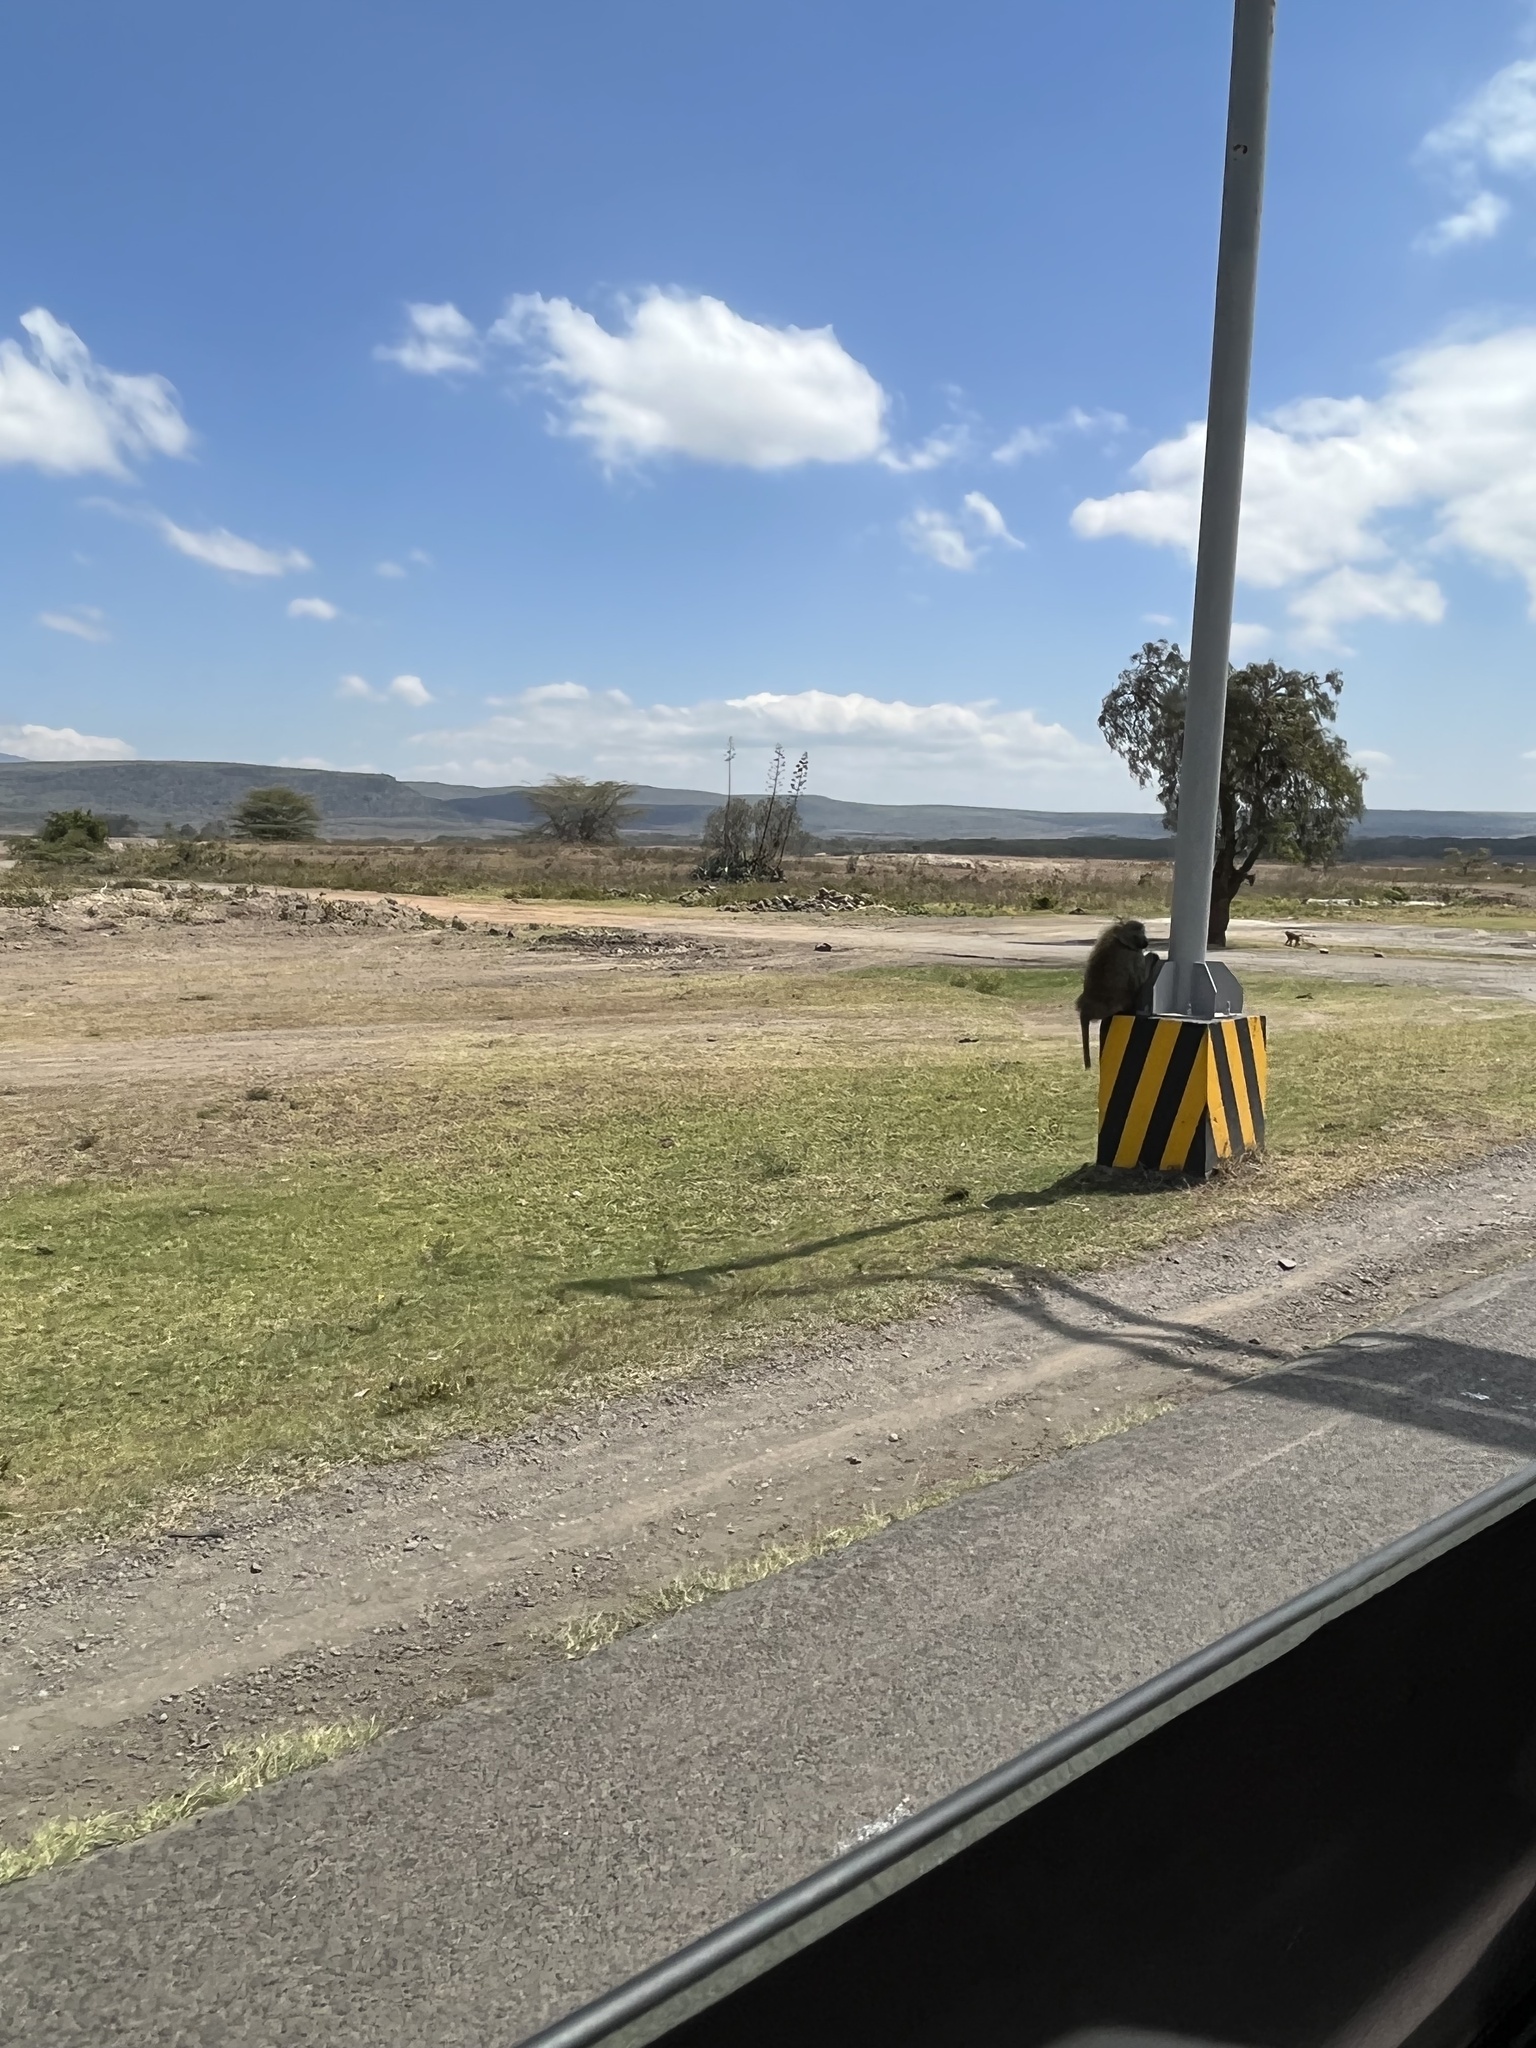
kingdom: Animalia
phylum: Chordata
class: Mammalia
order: Primates
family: Cercopithecidae
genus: Papio
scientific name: Papio anubis
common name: Olive baboon
